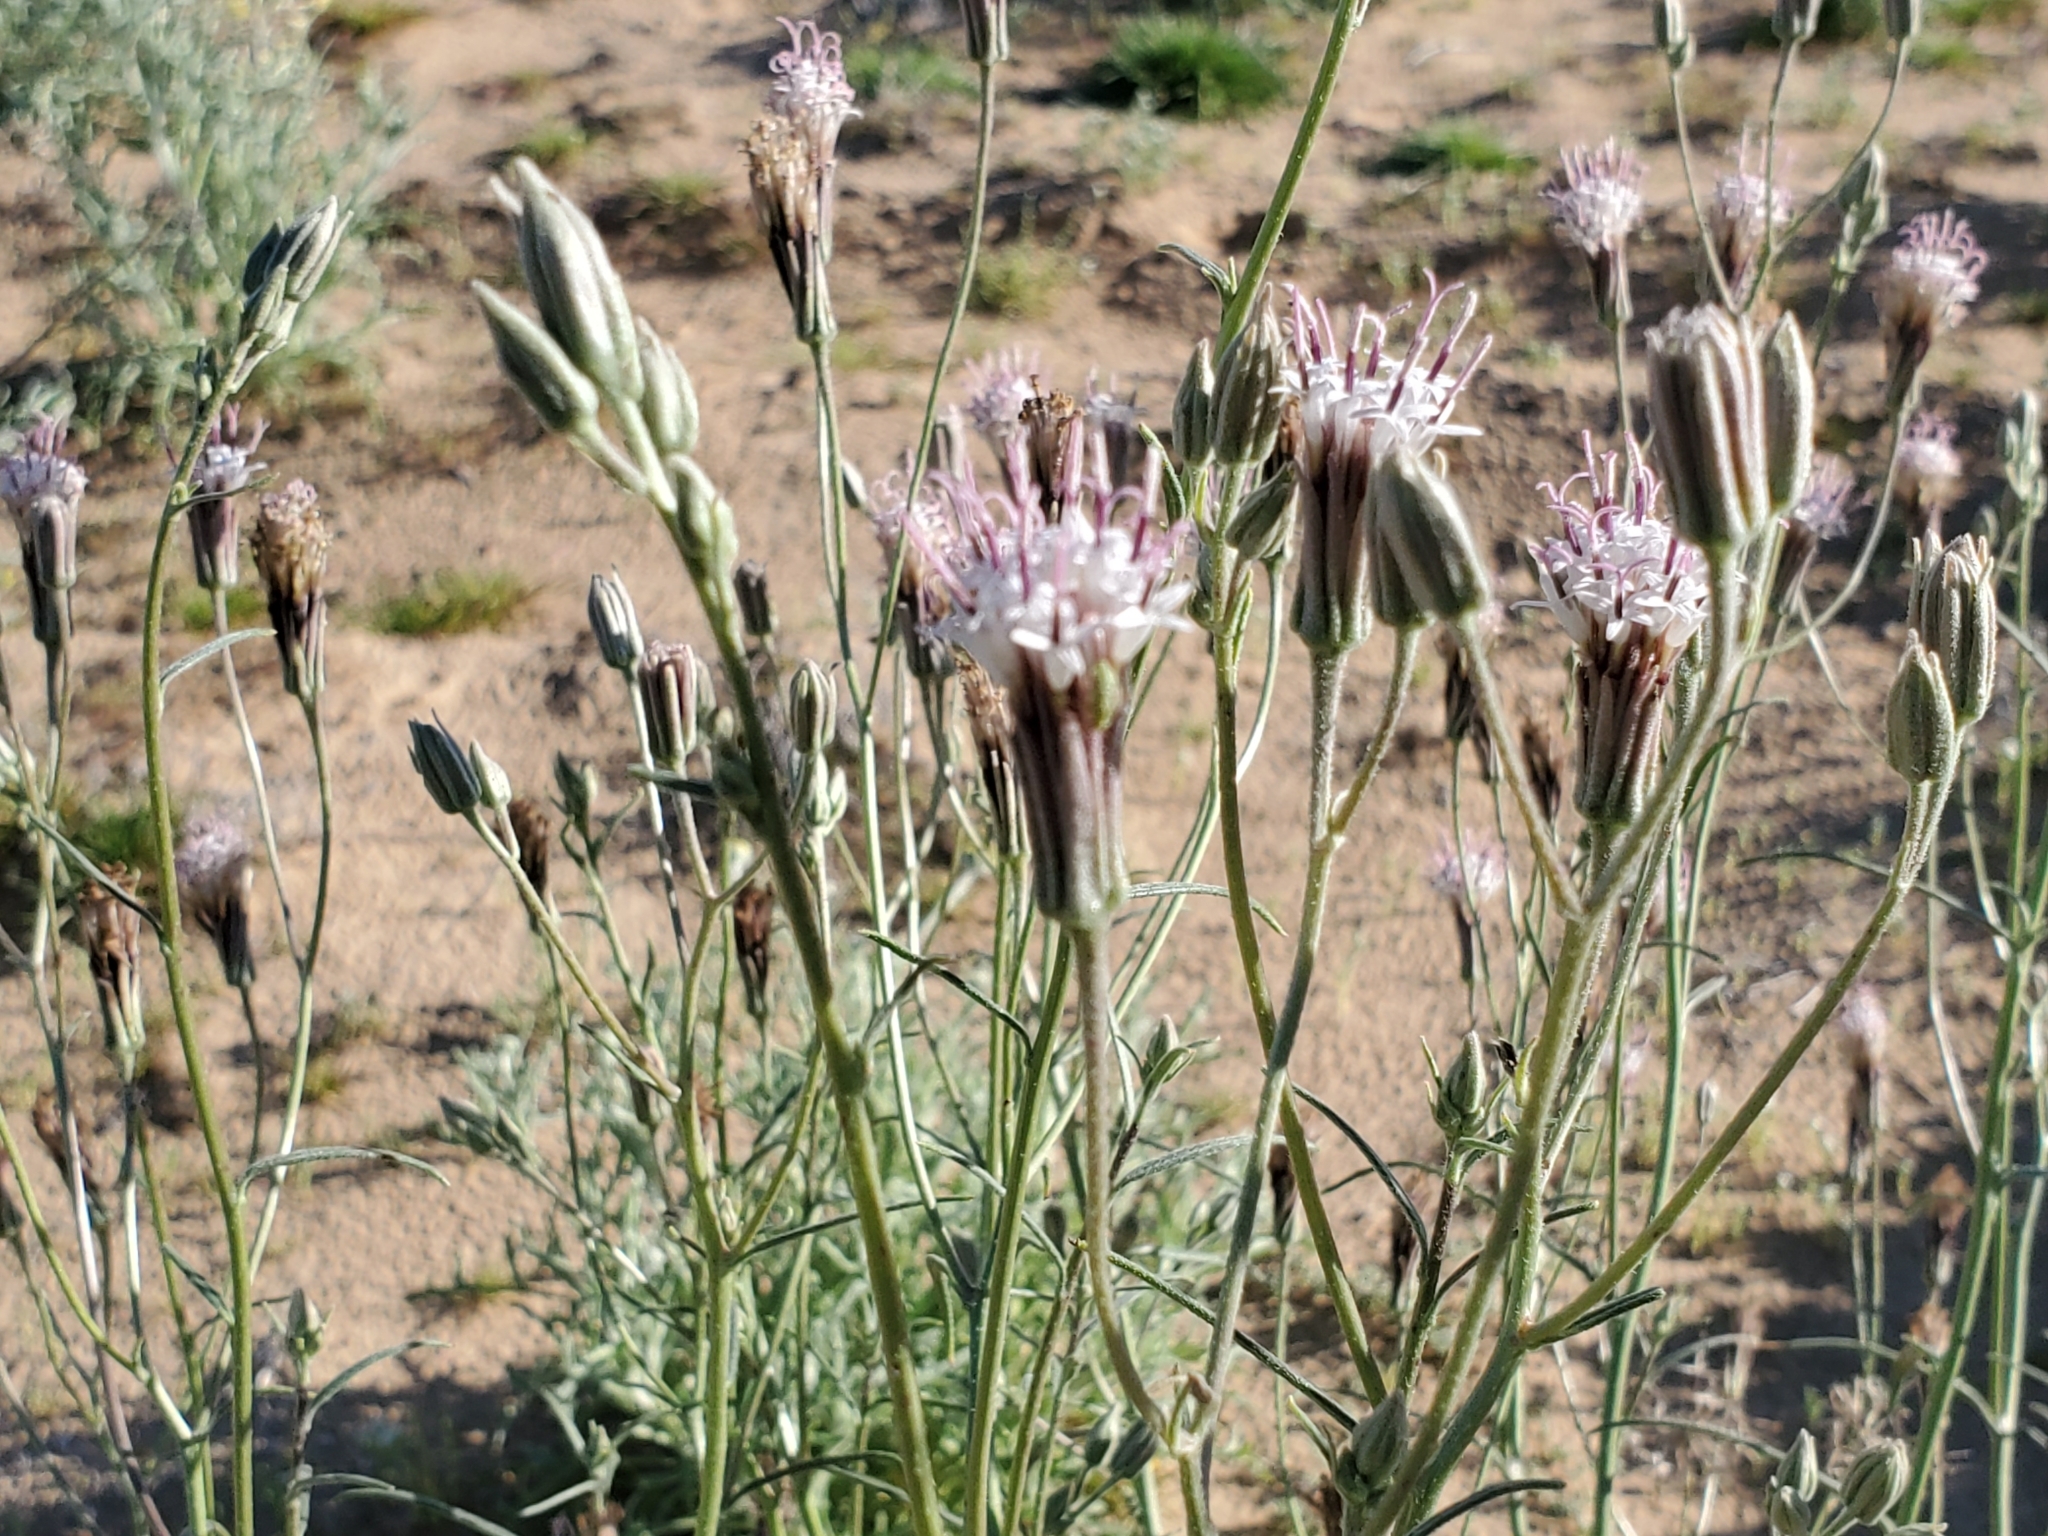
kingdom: Plantae
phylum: Tracheophyta
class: Magnoliopsida
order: Asterales
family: Asteraceae
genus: Palafoxia
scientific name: Palafoxia arida
